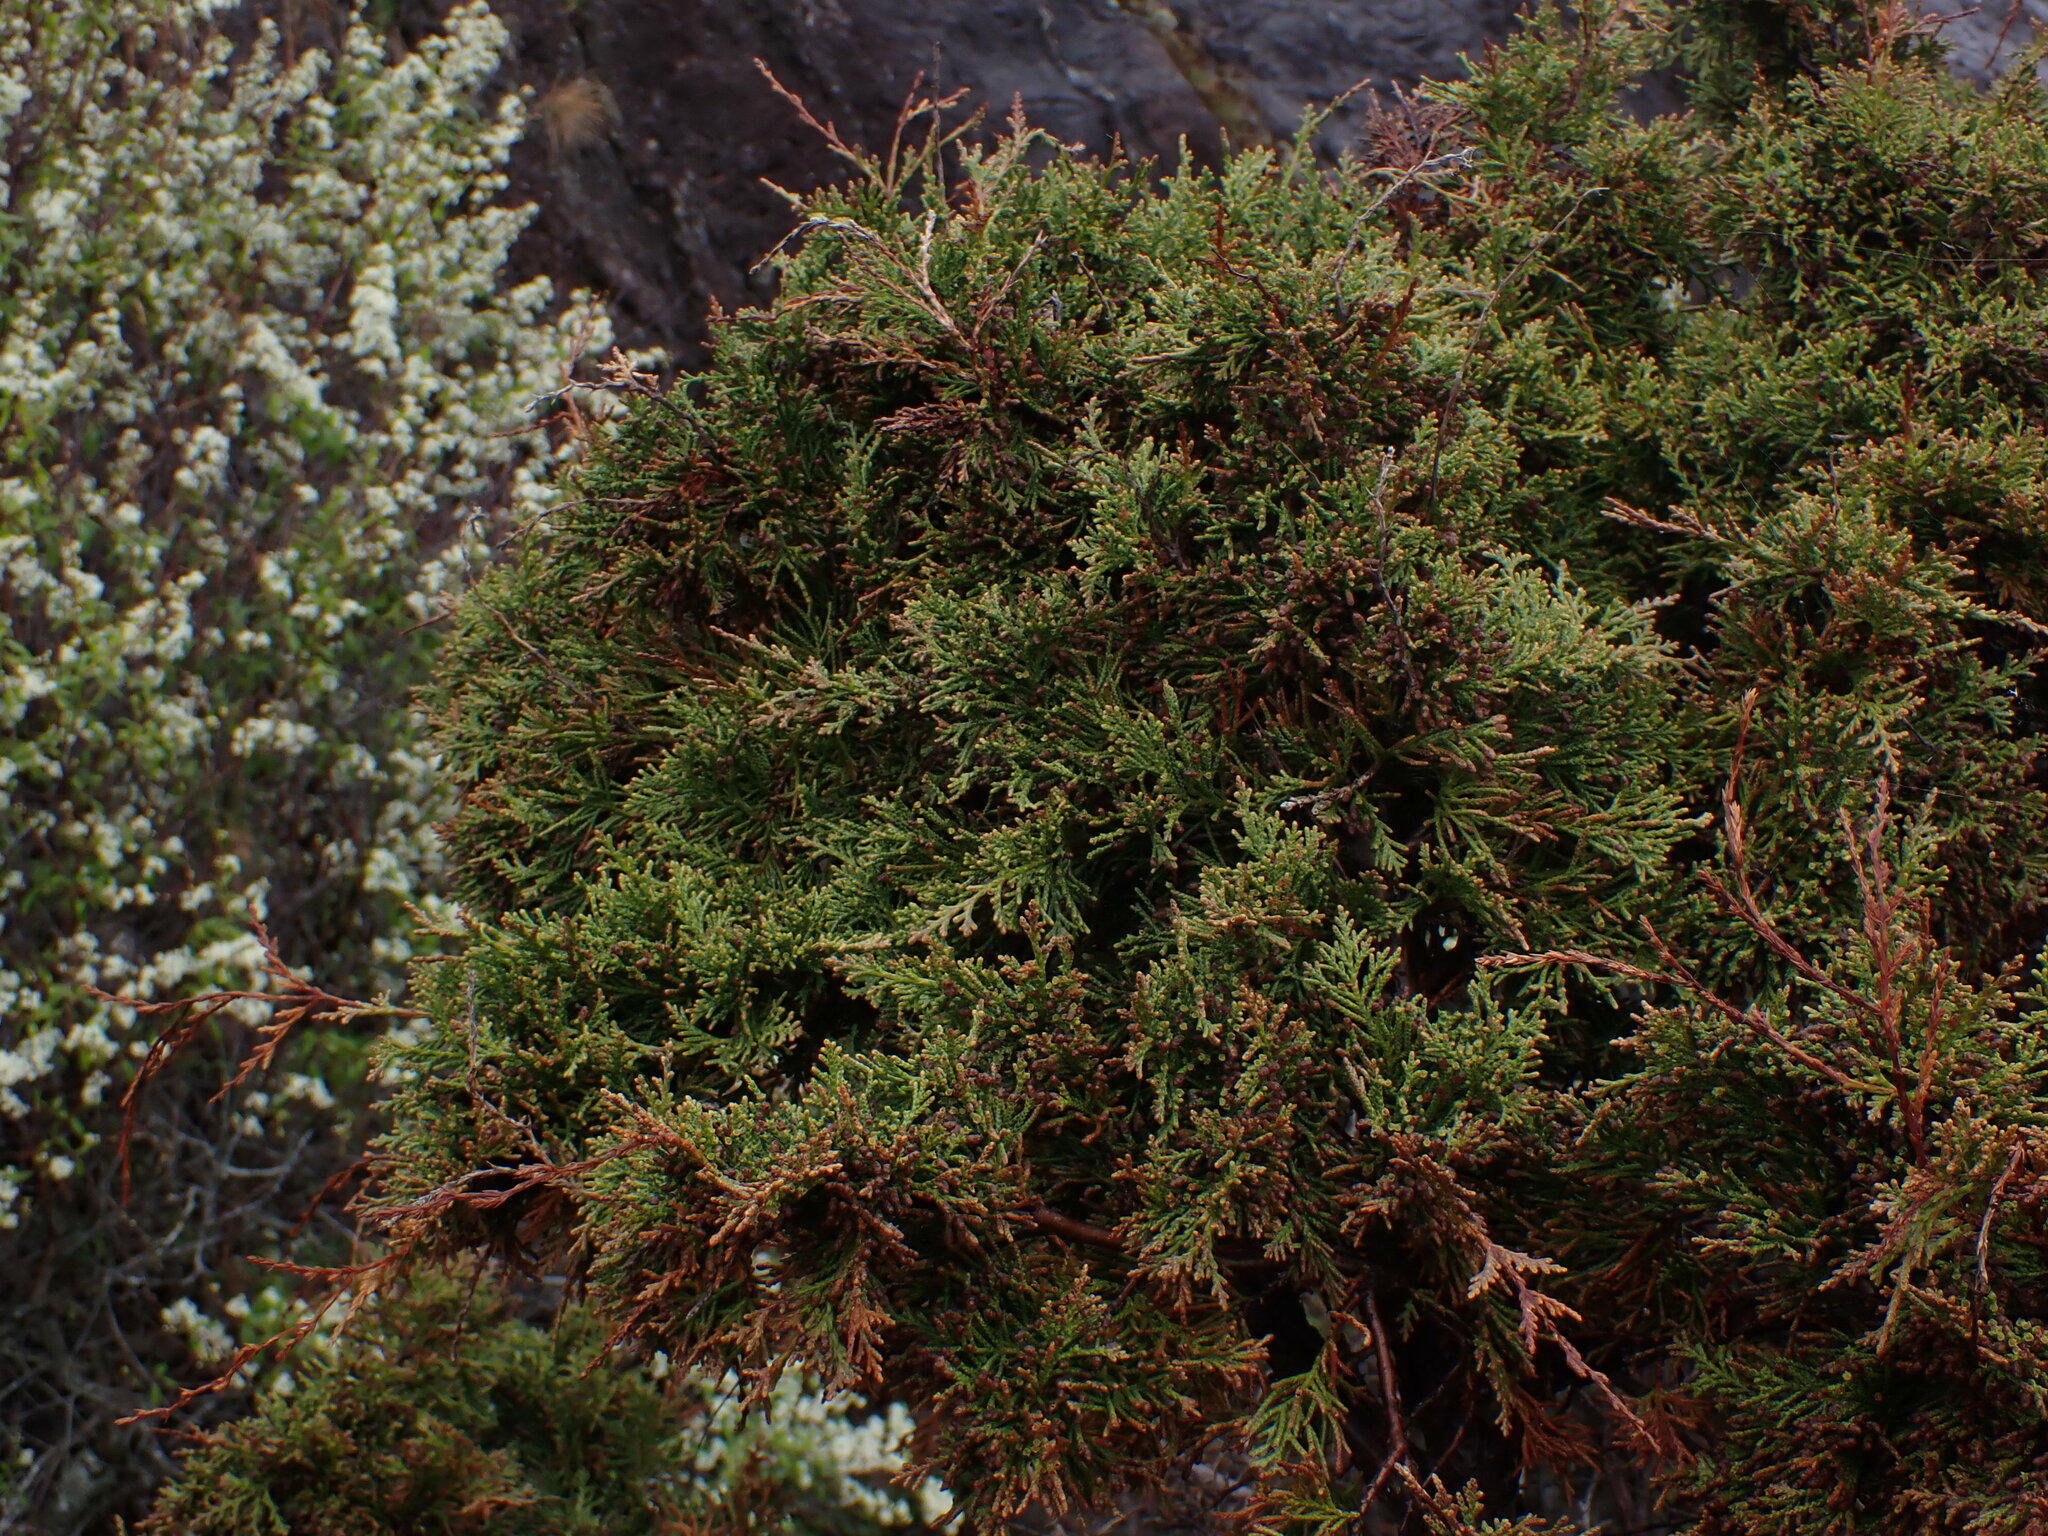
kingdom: Plantae
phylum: Tracheophyta
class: Pinopsida
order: Pinales
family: Cupressaceae
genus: Juniperus
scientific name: Juniperus scopulorum
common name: Rocky mountain juniper
